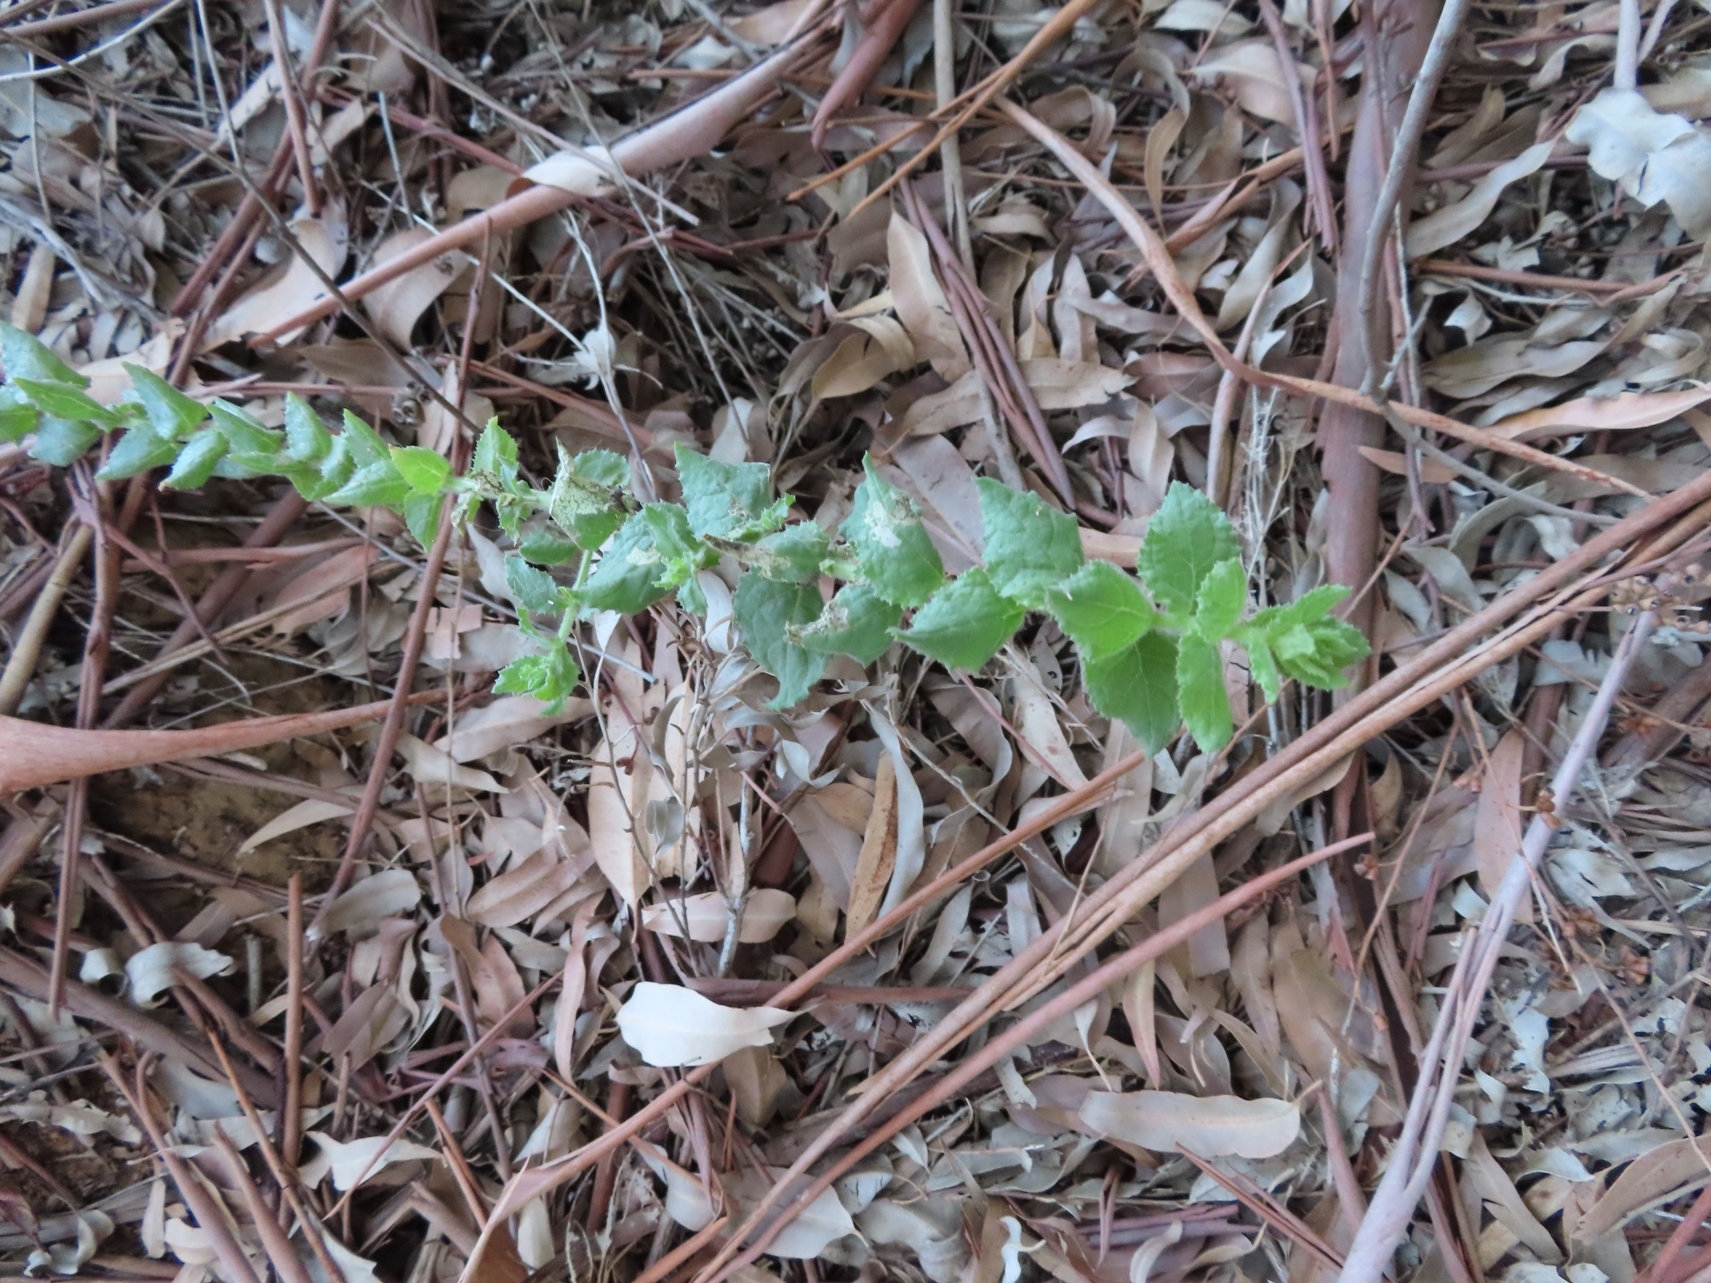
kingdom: Plantae
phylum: Tracheophyta
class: Magnoliopsida
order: Lamiales
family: Scrophulariaceae
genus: Oftia
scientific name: Oftia africana
